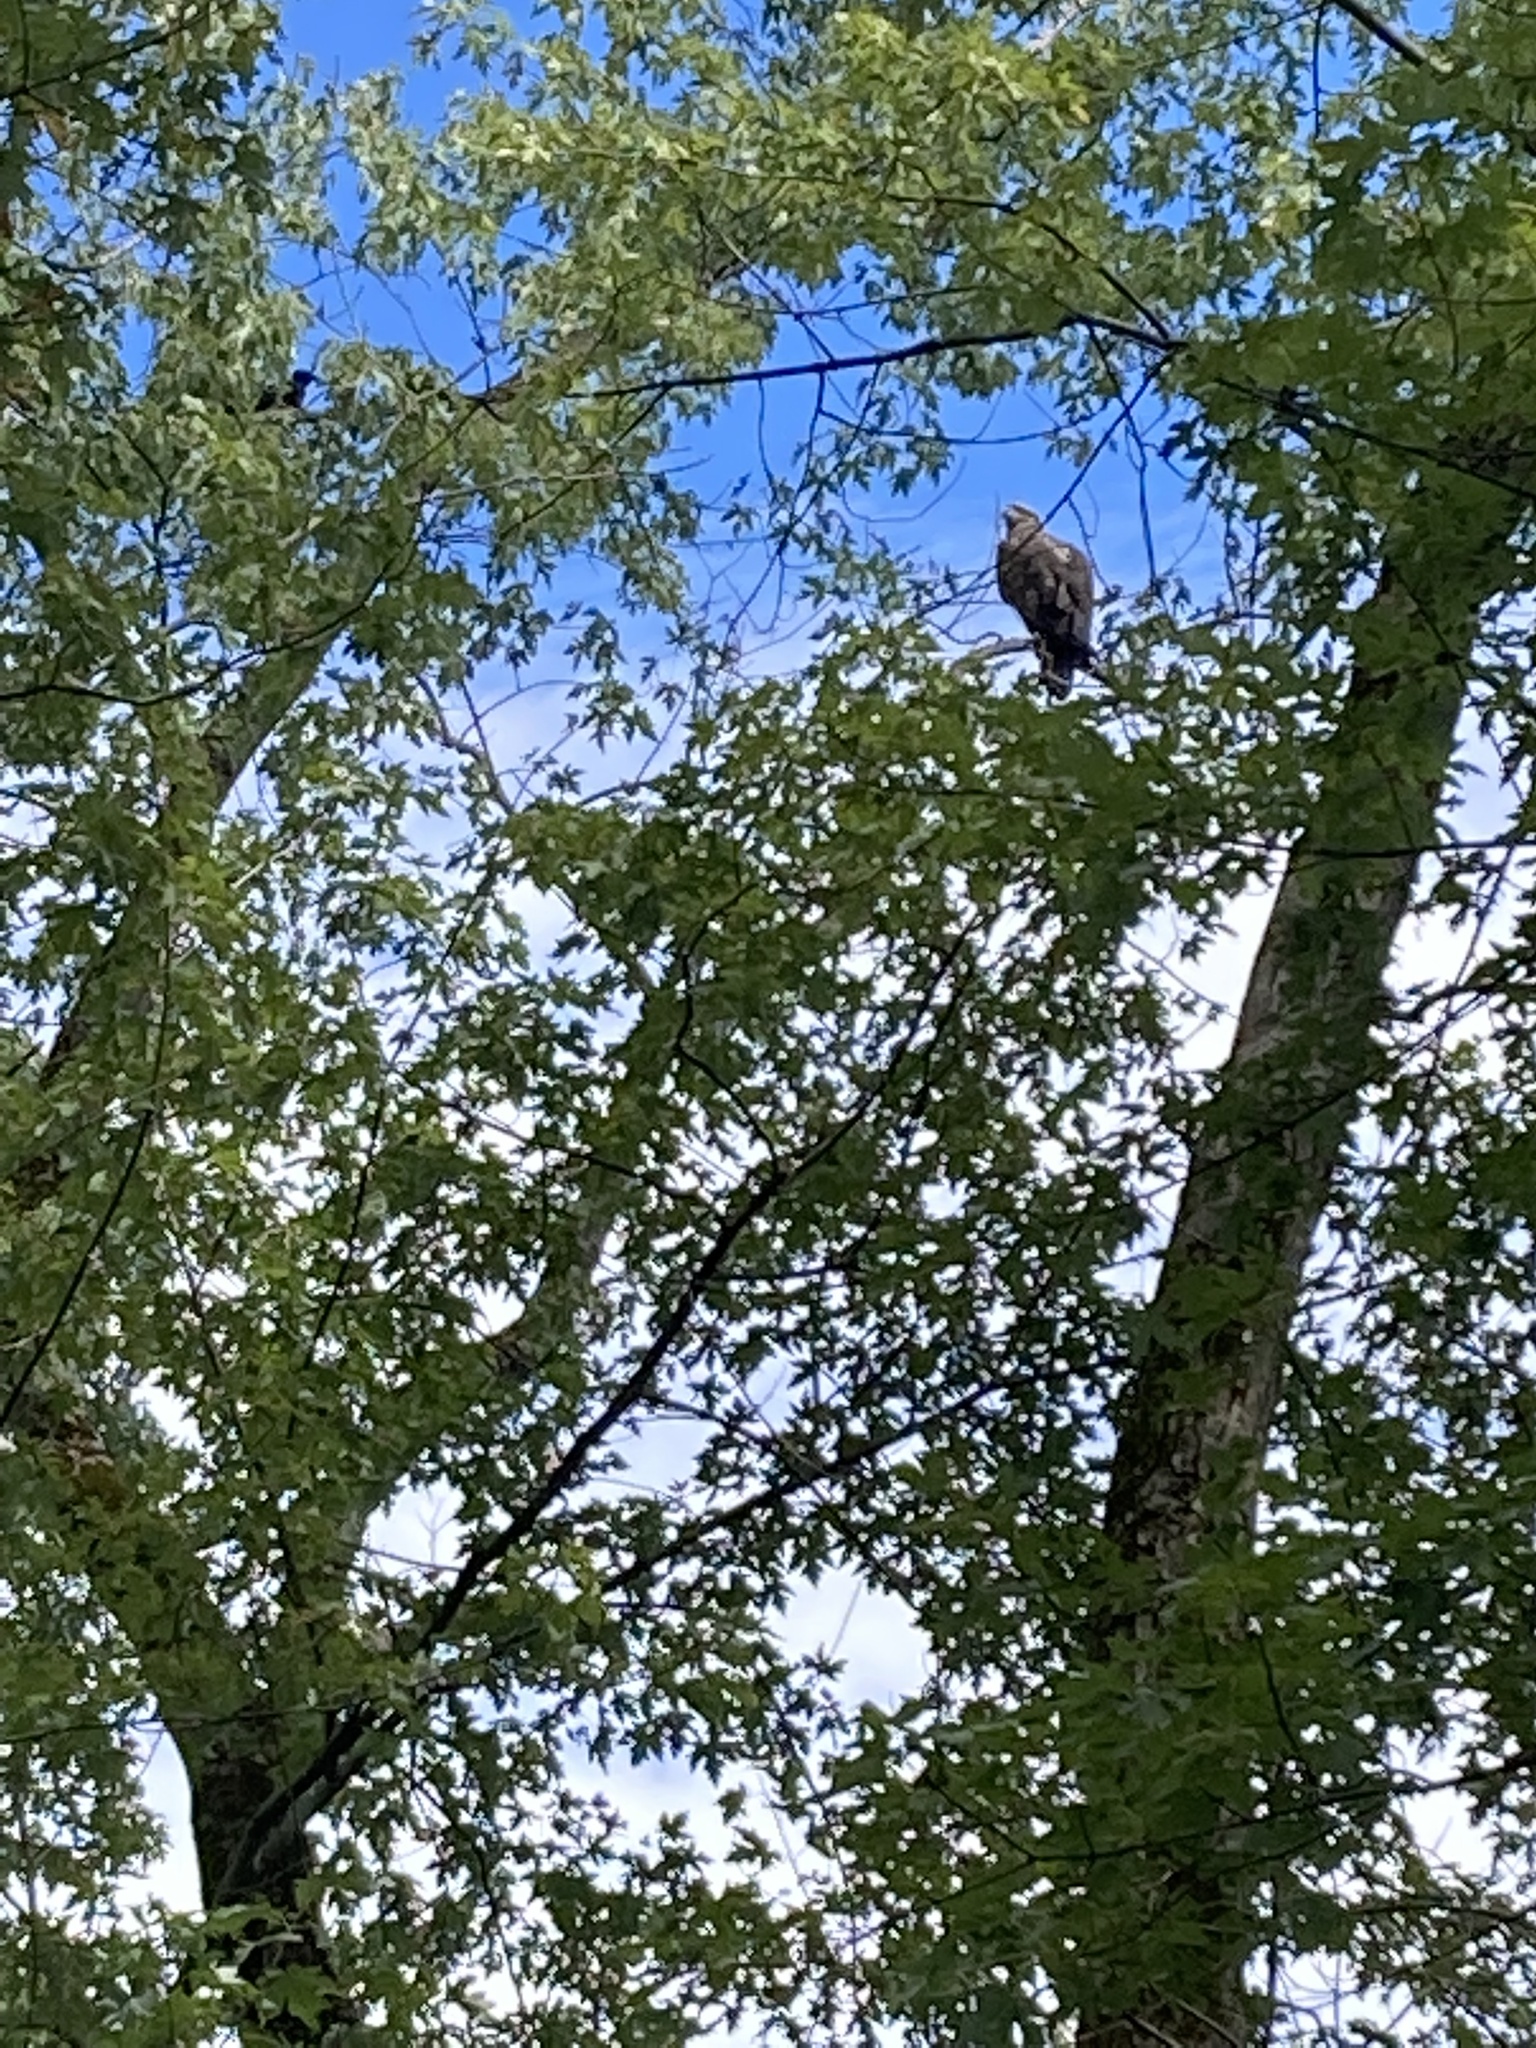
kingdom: Animalia
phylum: Chordata
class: Aves
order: Accipitriformes
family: Accipitridae
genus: Haliaeetus
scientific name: Haliaeetus leucocephalus
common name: Bald eagle
